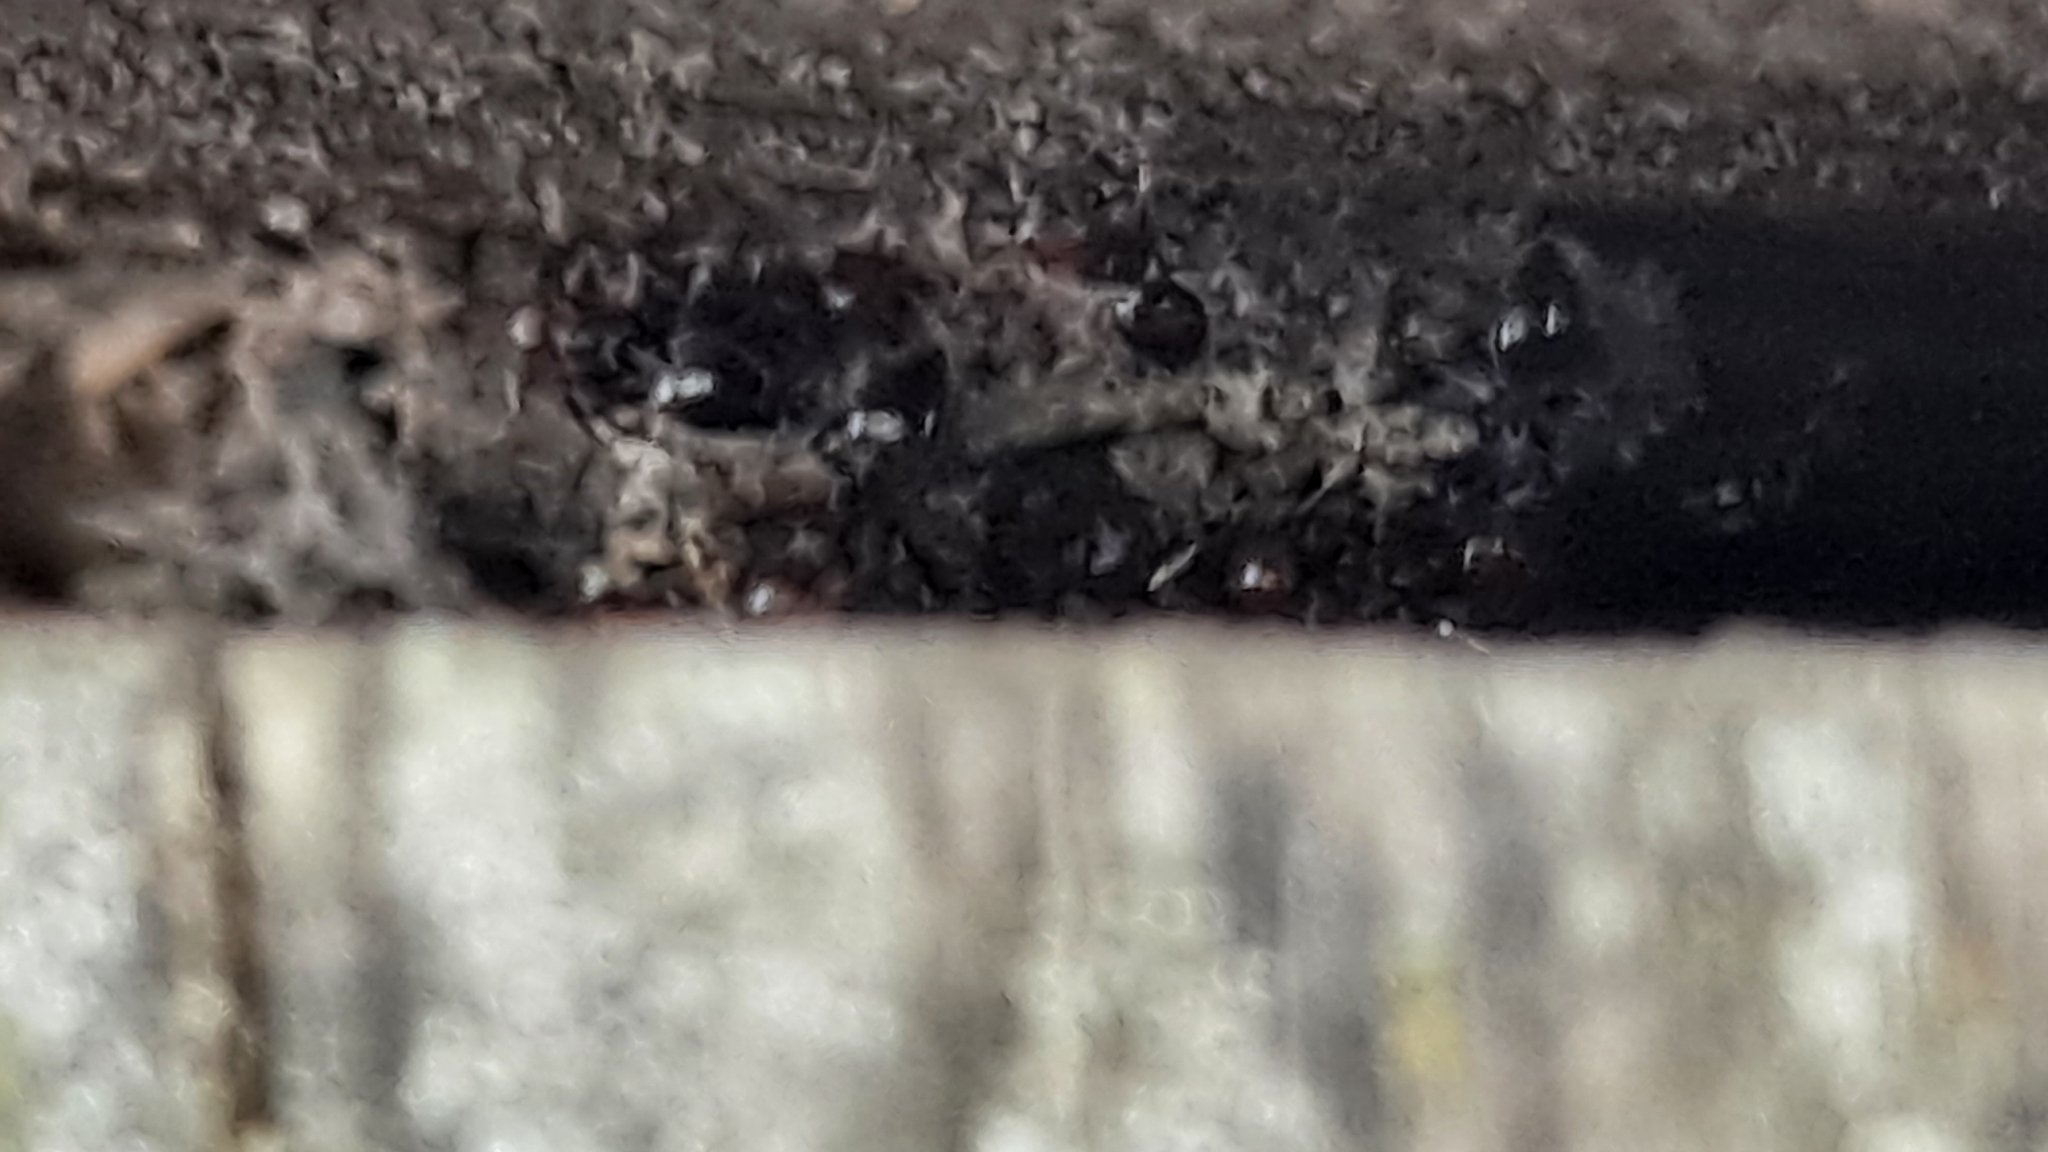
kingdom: Animalia
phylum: Arthropoda
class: Insecta
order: Hymenoptera
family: Formicidae
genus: Crematogaster
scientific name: Crematogaster scutellaris
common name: Fourmi du liège
